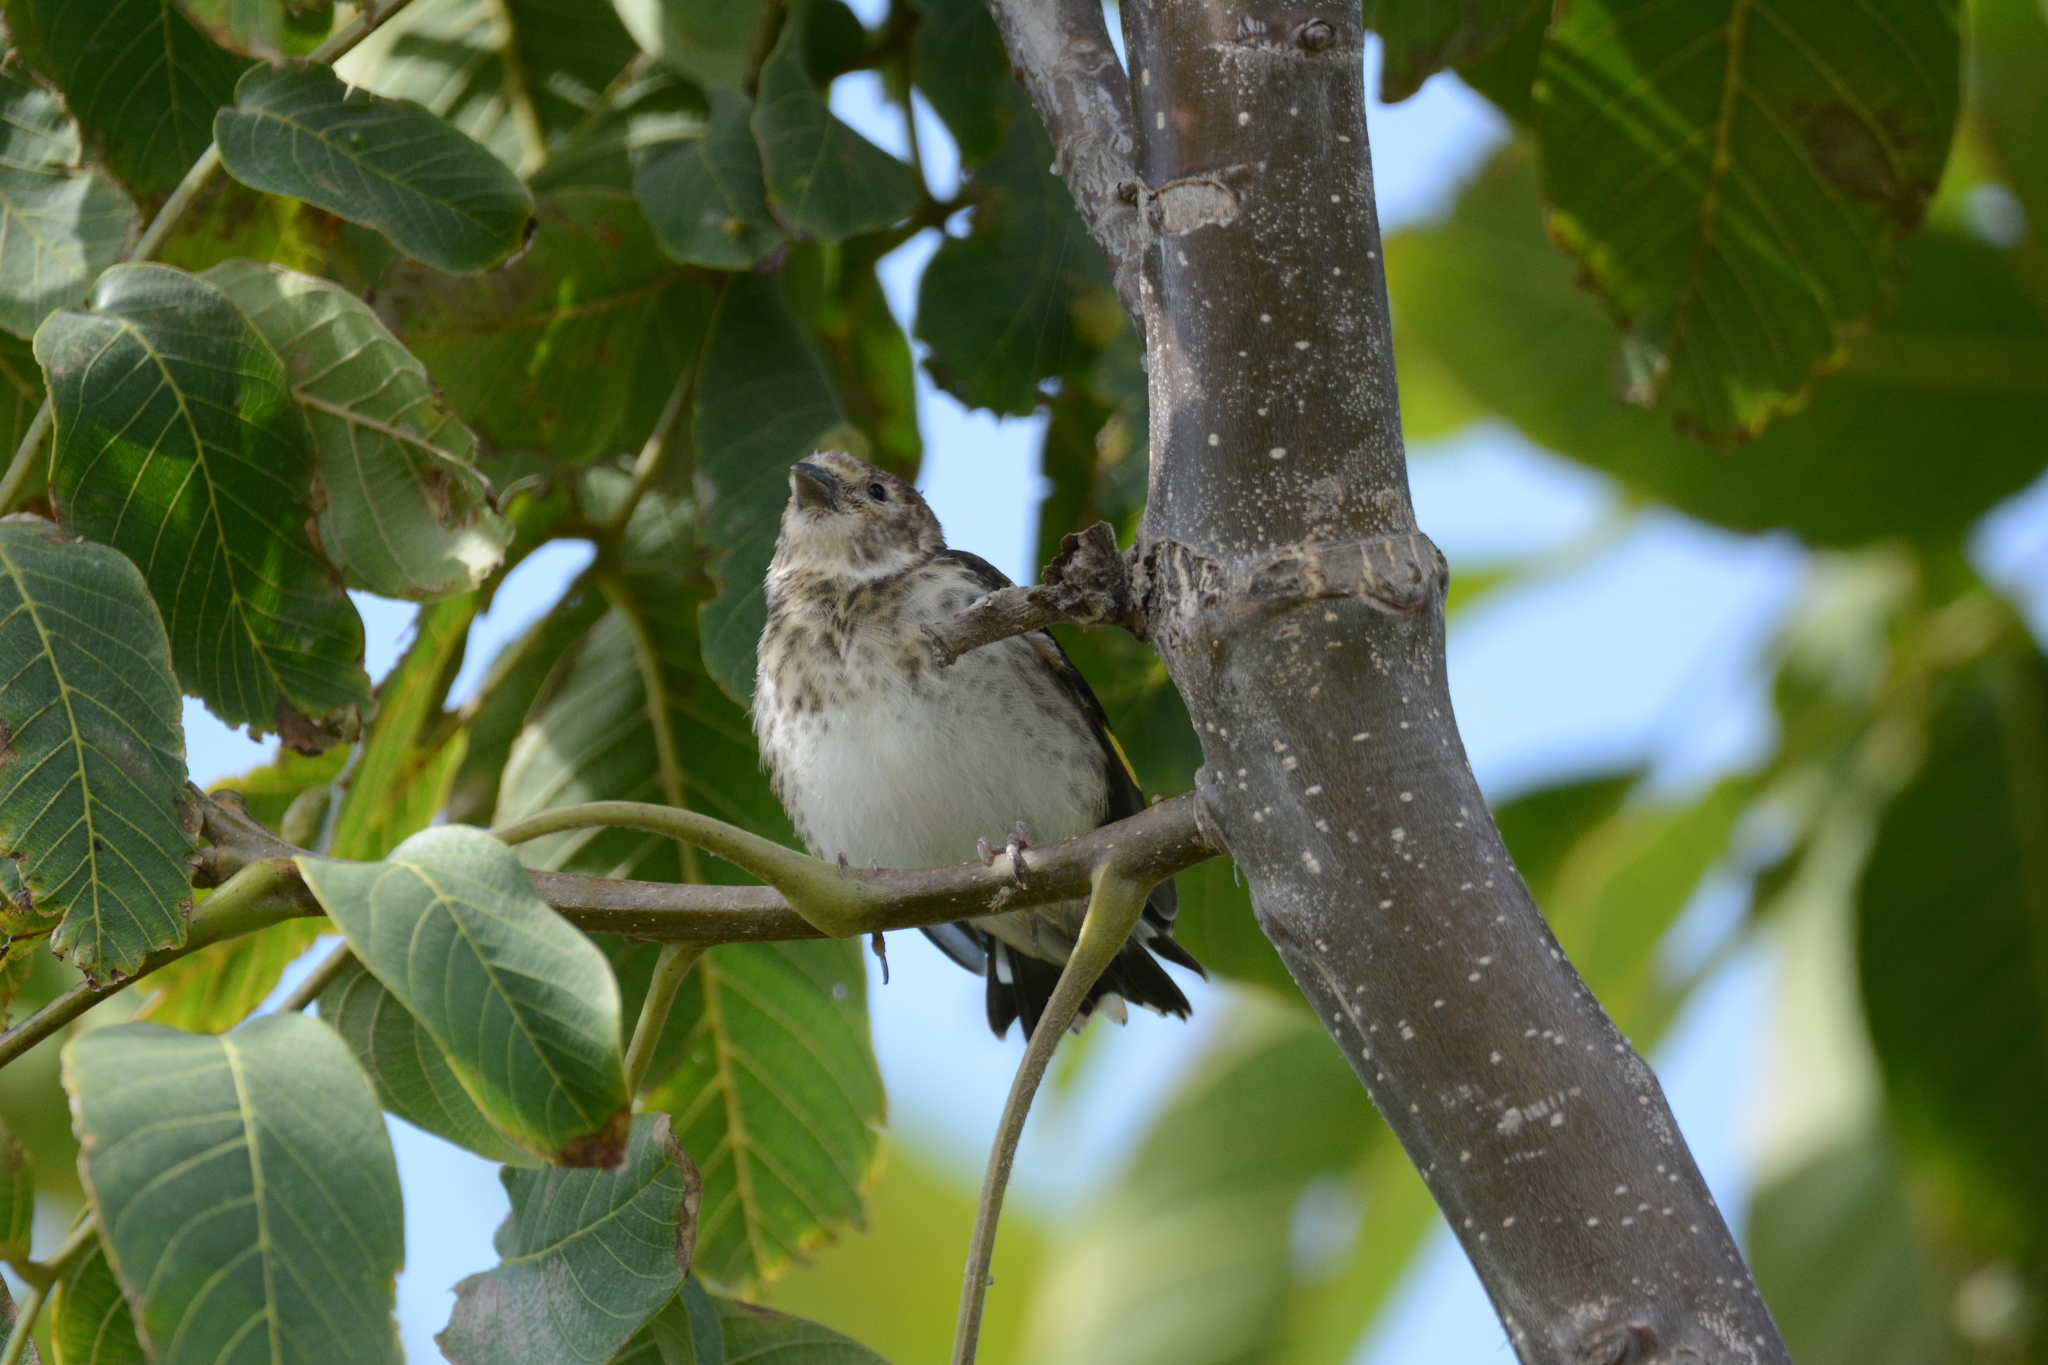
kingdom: Animalia
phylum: Chordata
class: Aves
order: Passeriformes
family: Fringillidae
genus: Carduelis
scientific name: Carduelis carduelis
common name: European goldfinch
